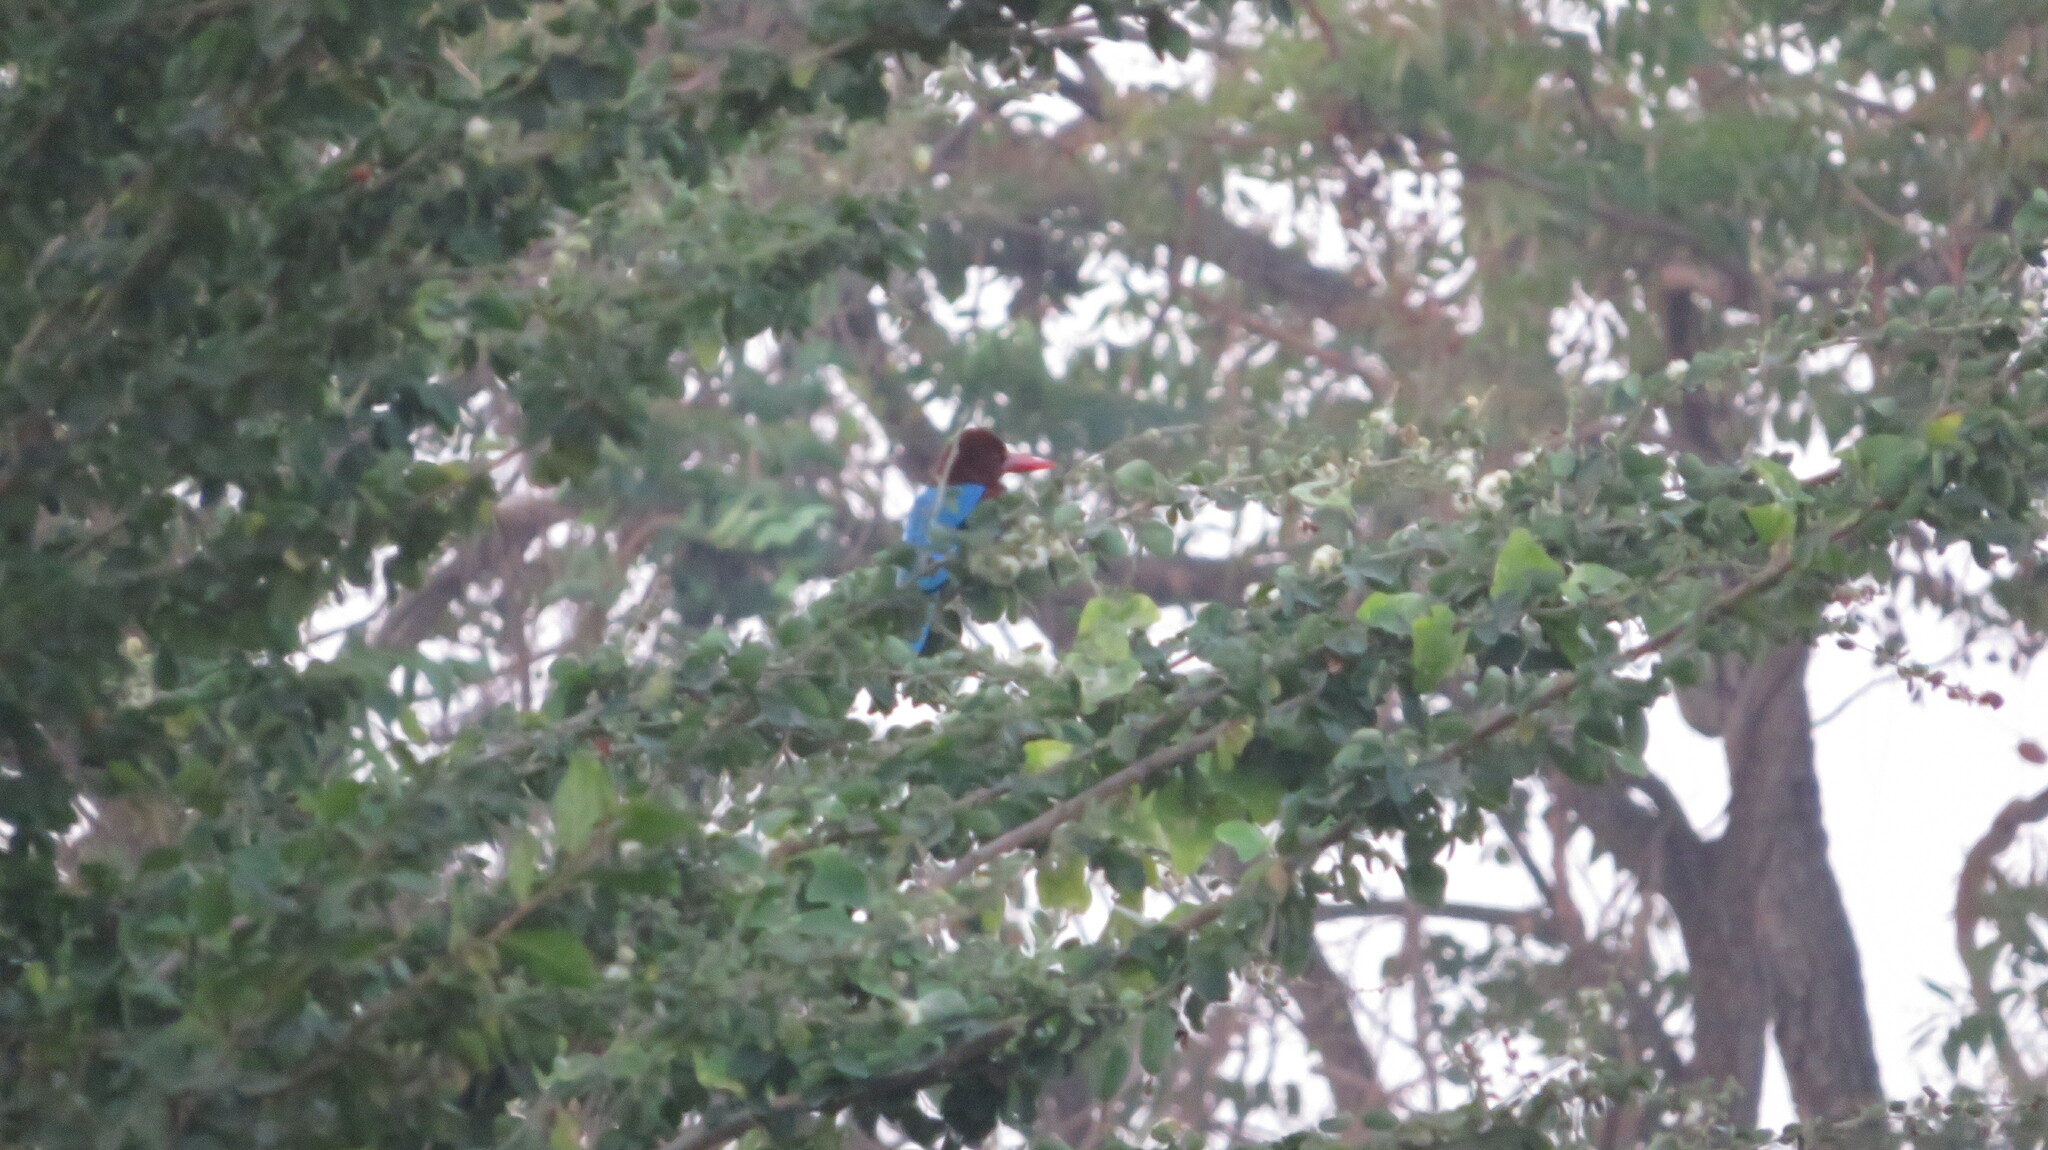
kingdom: Animalia
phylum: Chordata
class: Aves
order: Coraciiformes
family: Alcedinidae
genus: Halcyon
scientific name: Halcyon smyrnensis
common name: White-throated kingfisher
